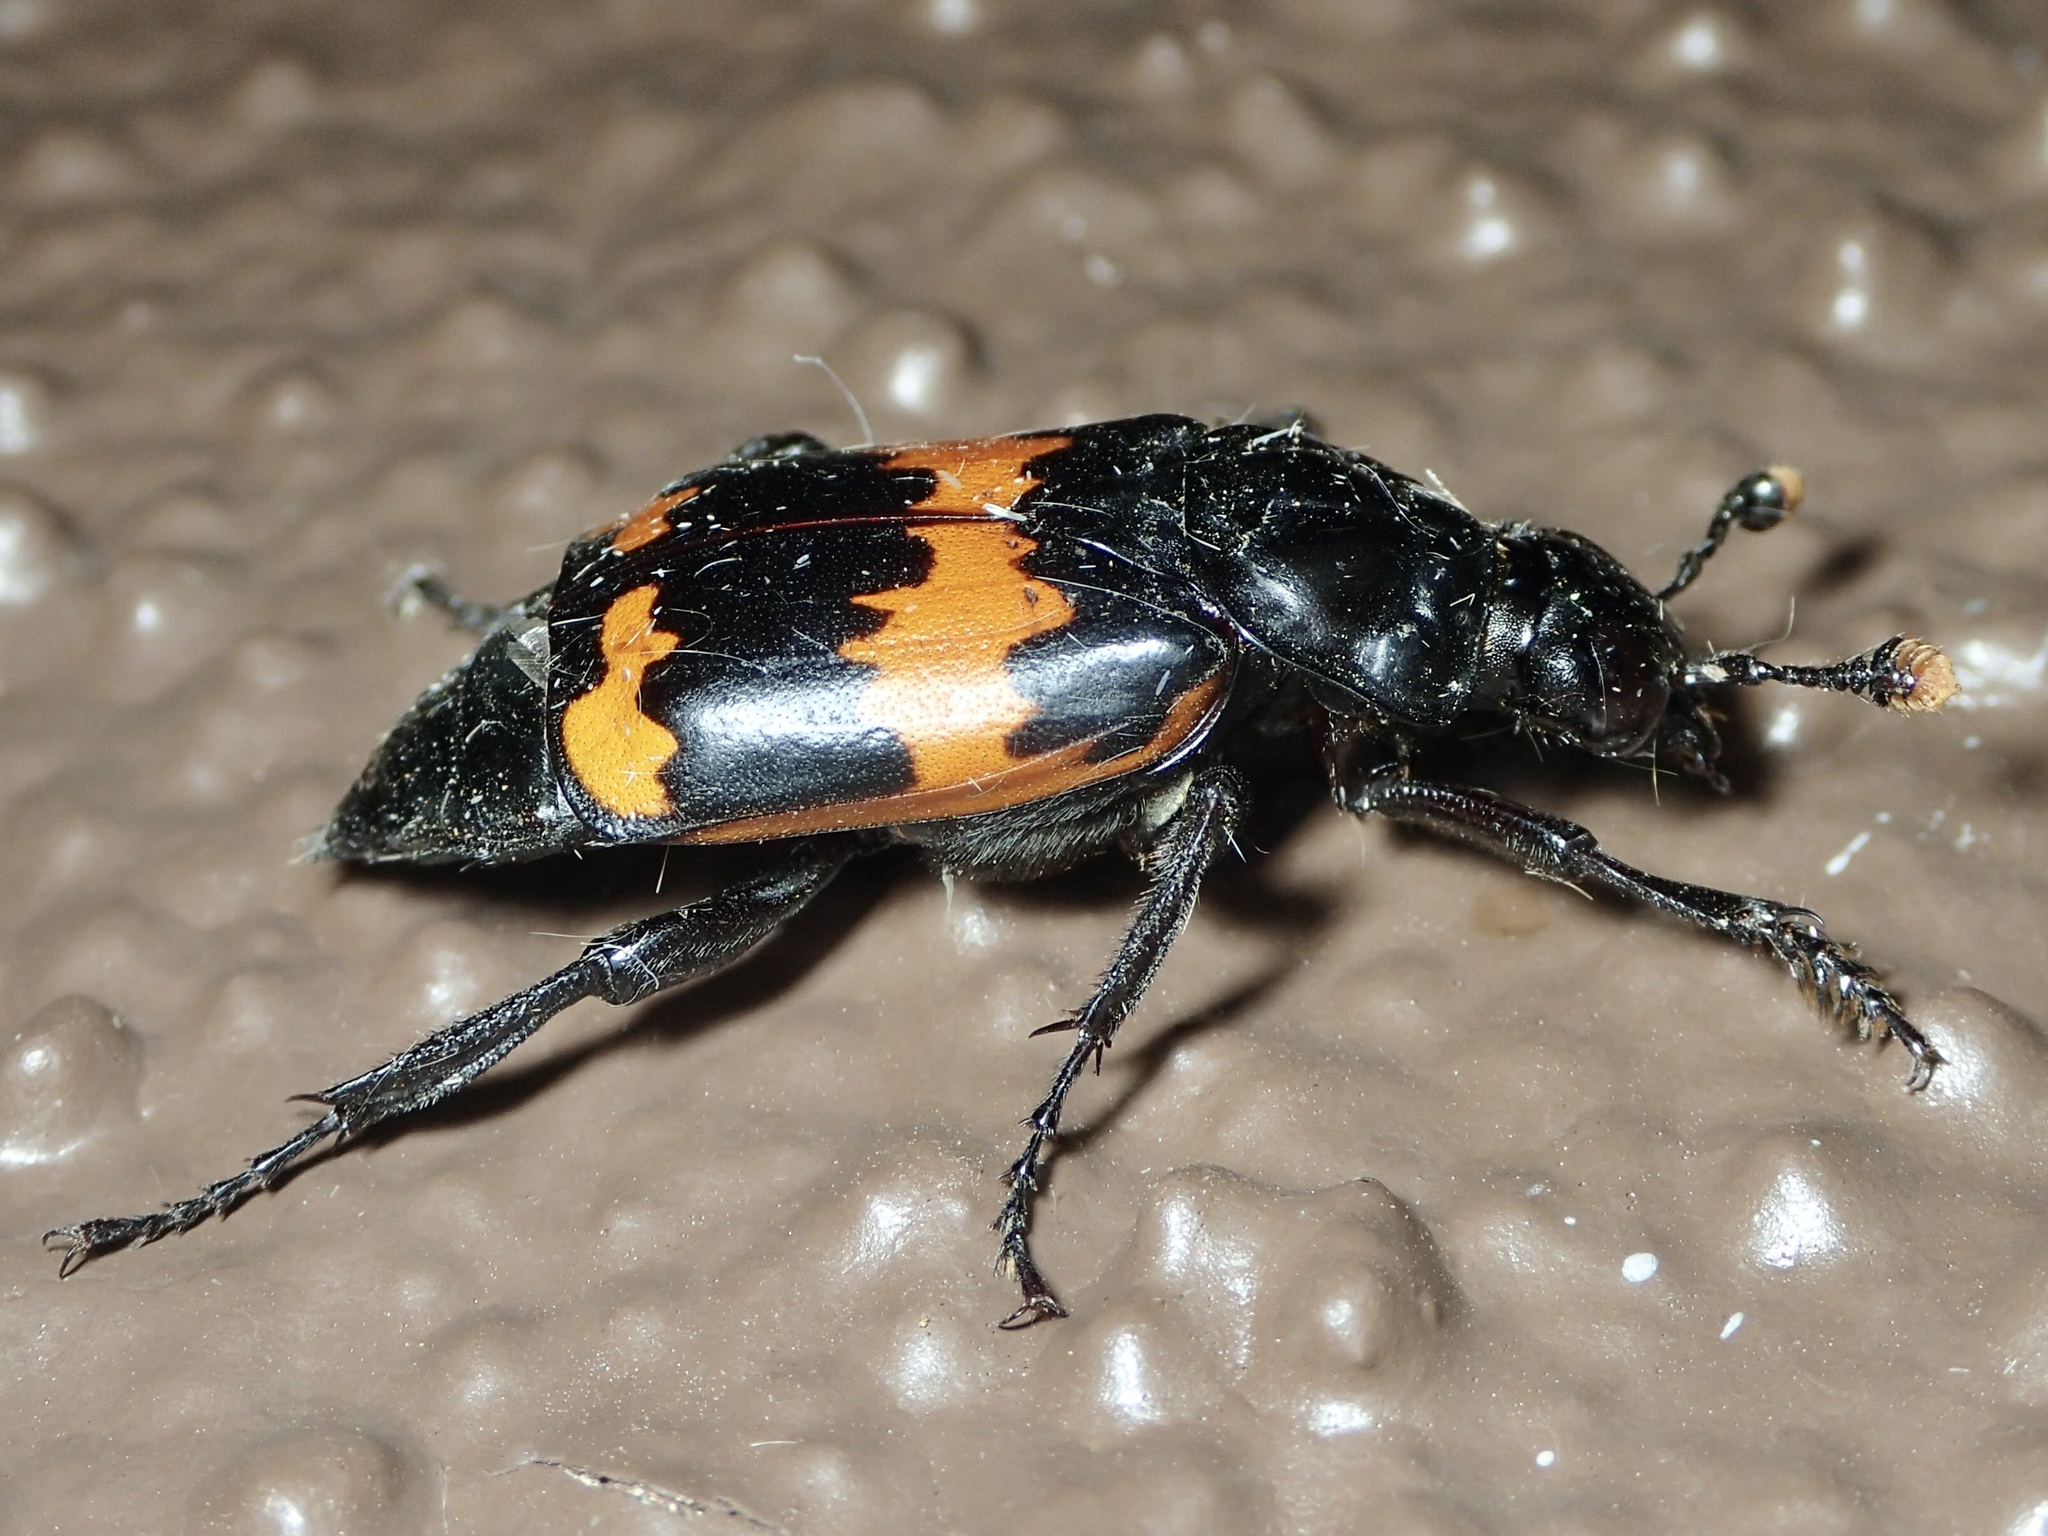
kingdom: Animalia
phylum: Arthropoda
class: Insecta
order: Coleoptera
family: Staphylinidae
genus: Nicrophorus
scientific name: Nicrophorus mexicanus
